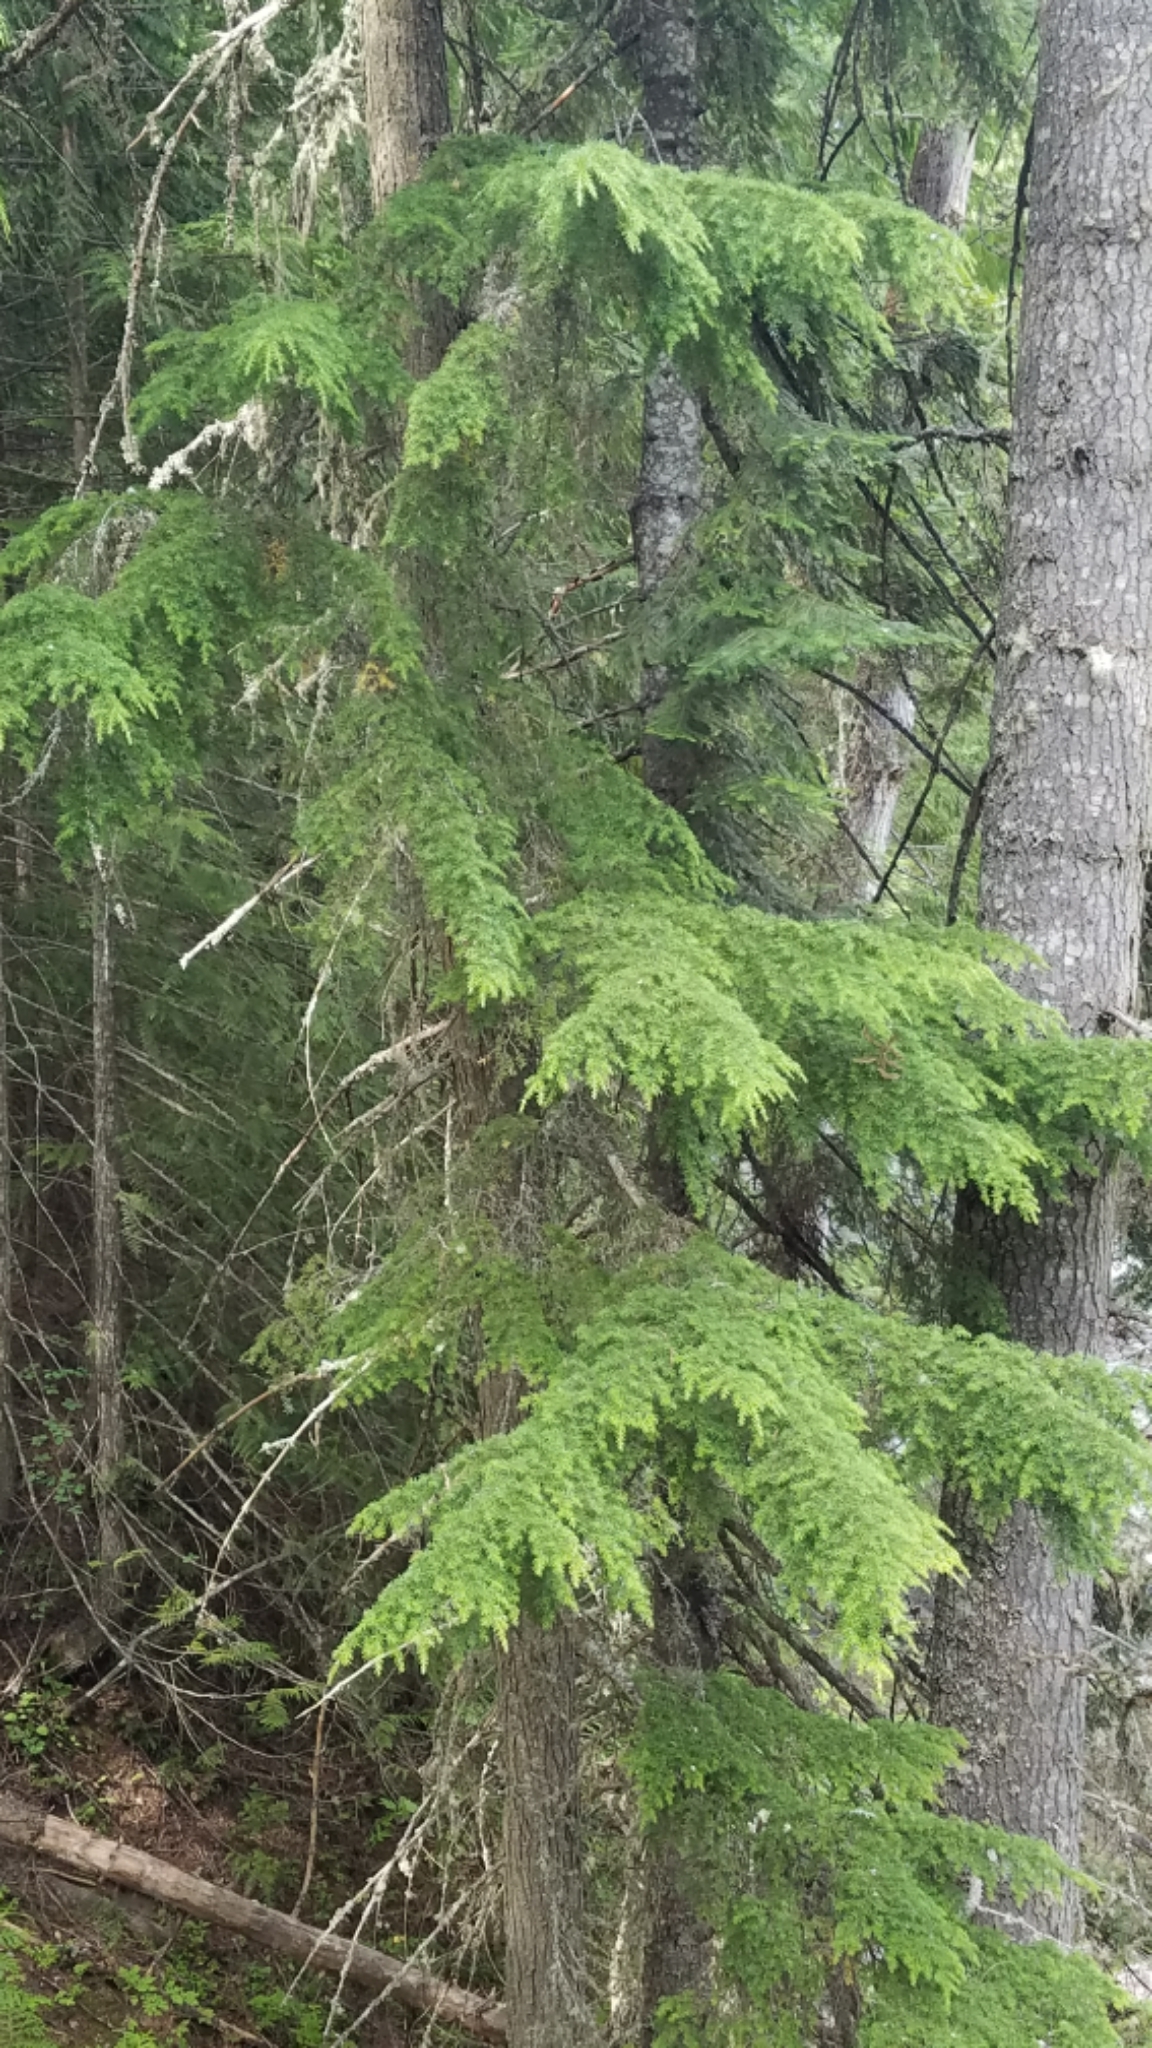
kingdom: Plantae
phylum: Tracheophyta
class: Pinopsida
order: Pinales
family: Pinaceae
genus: Tsuga
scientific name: Tsuga heterophylla
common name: Western hemlock
